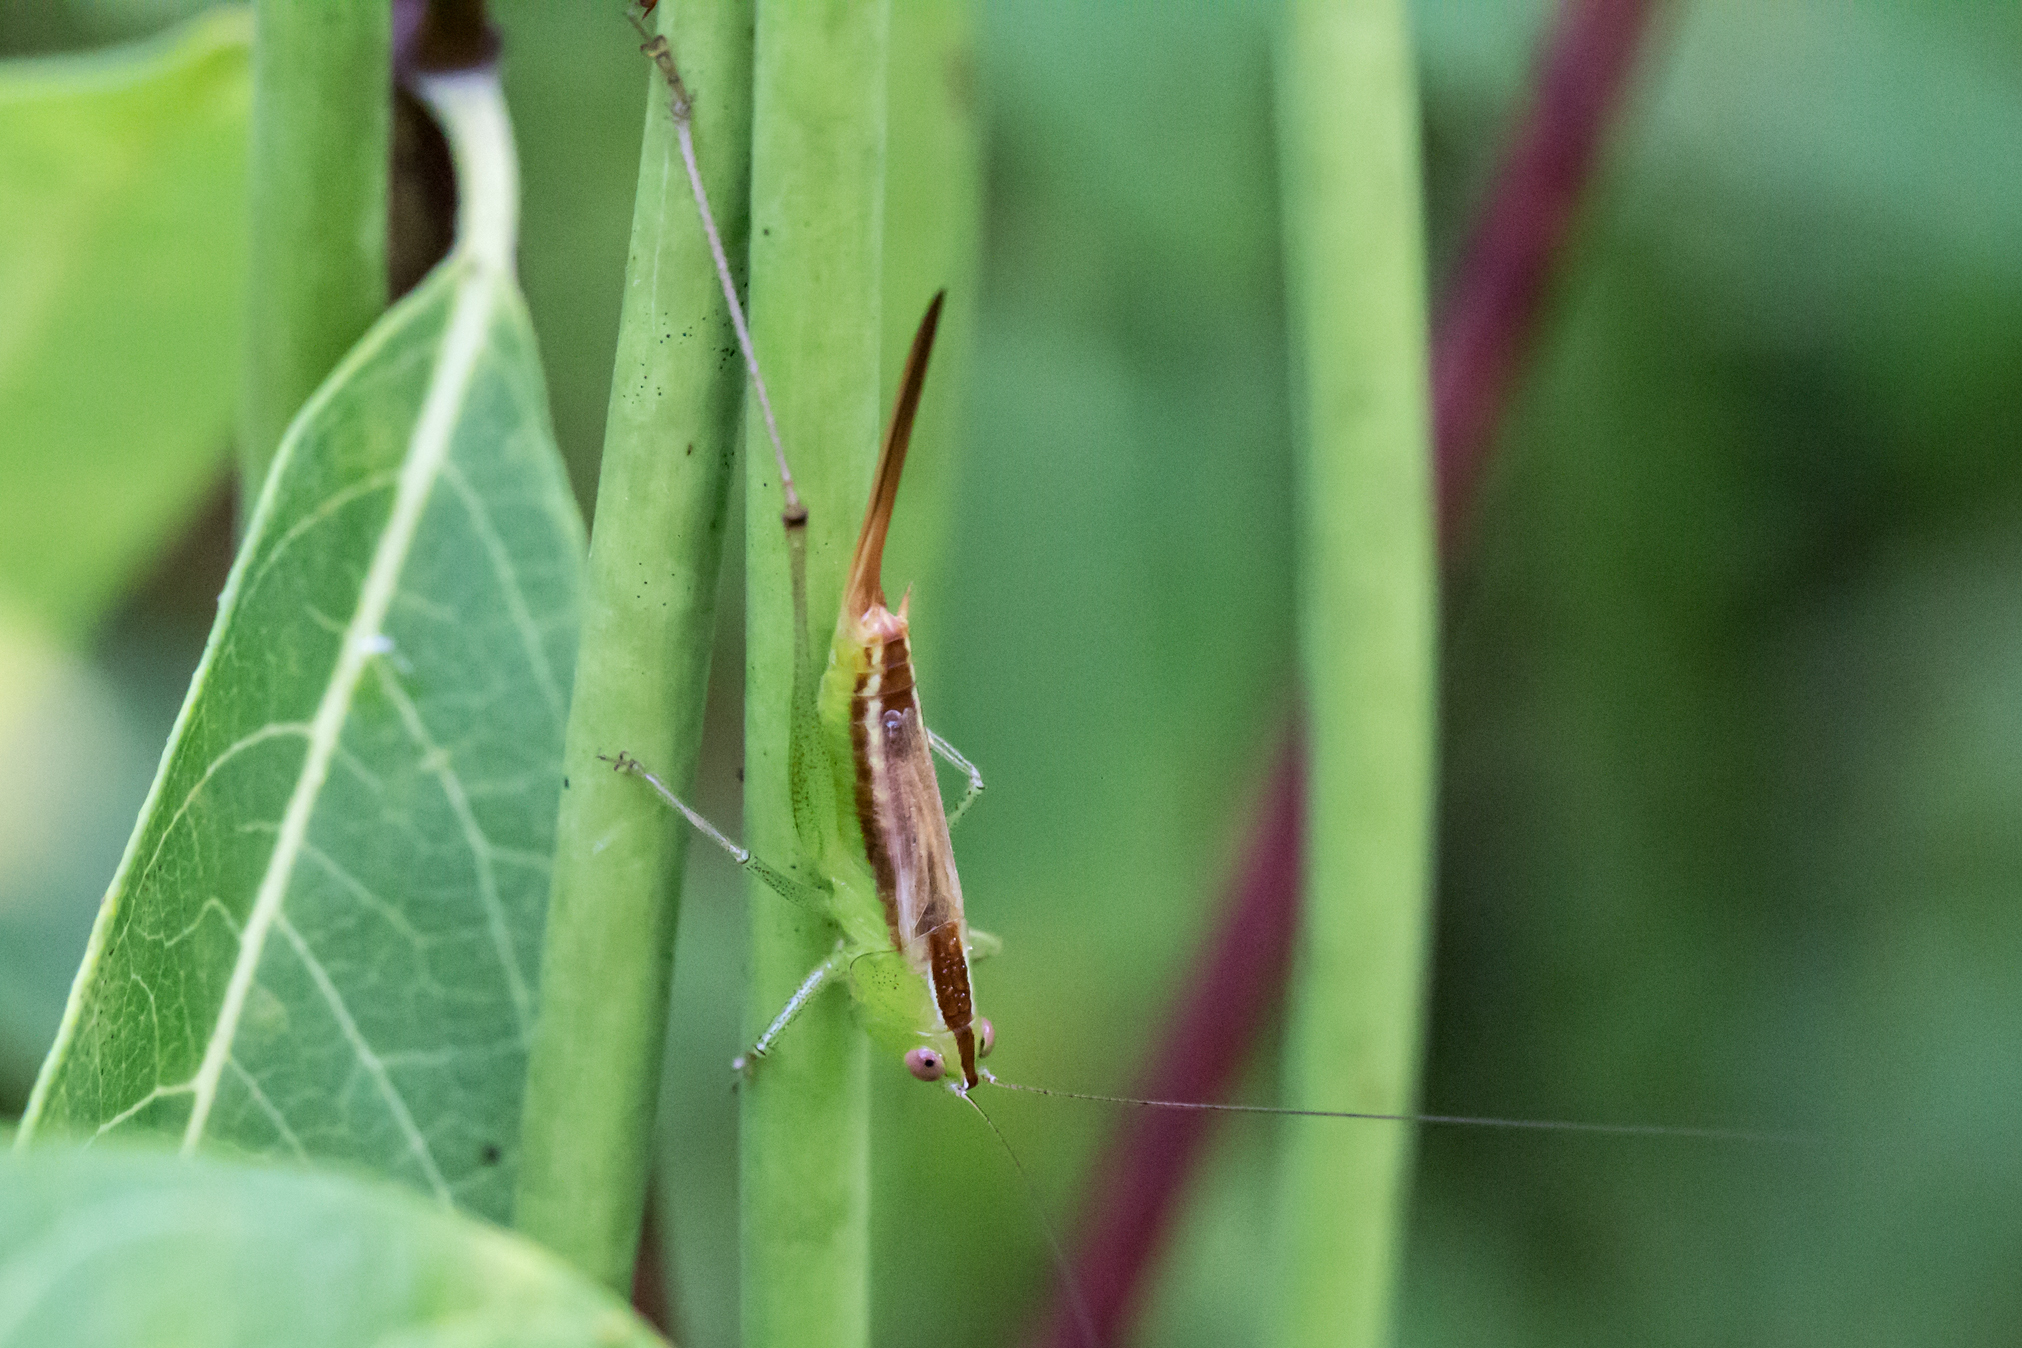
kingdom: Animalia
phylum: Arthropoda
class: Insecta
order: Orthoptera
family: Tettigoniidae
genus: Conocephalus
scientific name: Conocephalus brevipennis
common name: Short-winged meadow katydid
